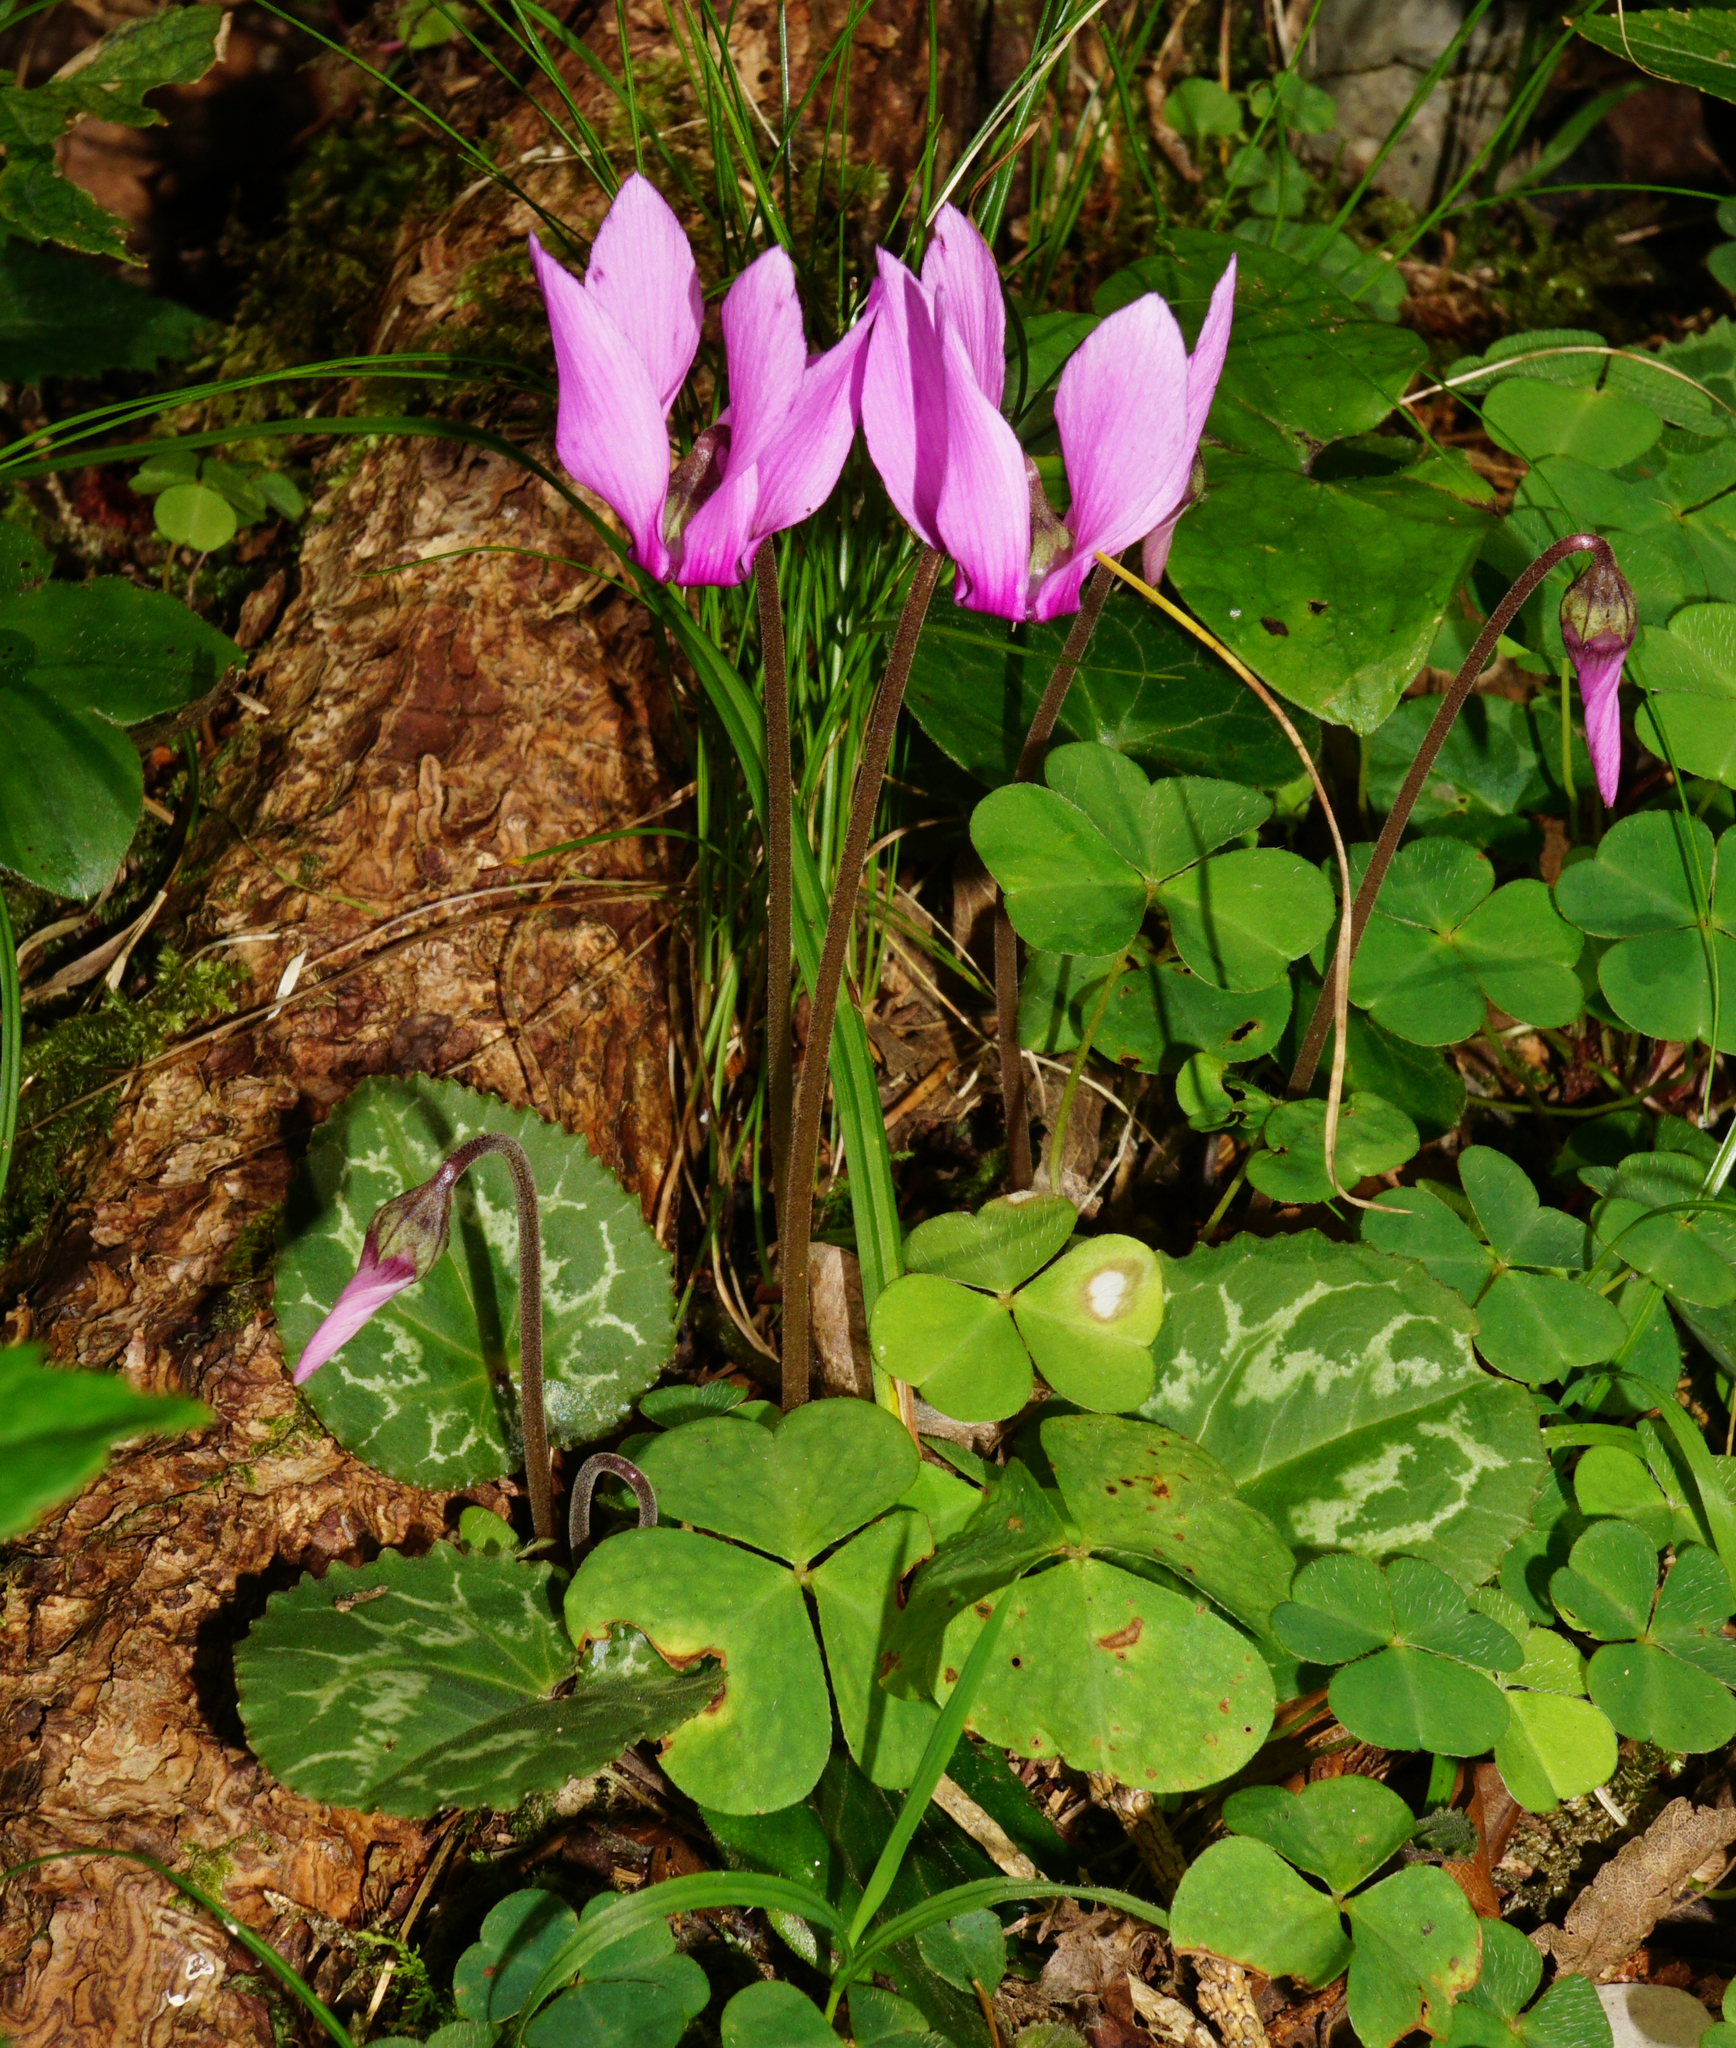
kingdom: Plantae
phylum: Tracheophyta
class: Magnoliopsida
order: Ericales
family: Primulaceae
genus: Cyclamen
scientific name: Cyclamen purpurascens
